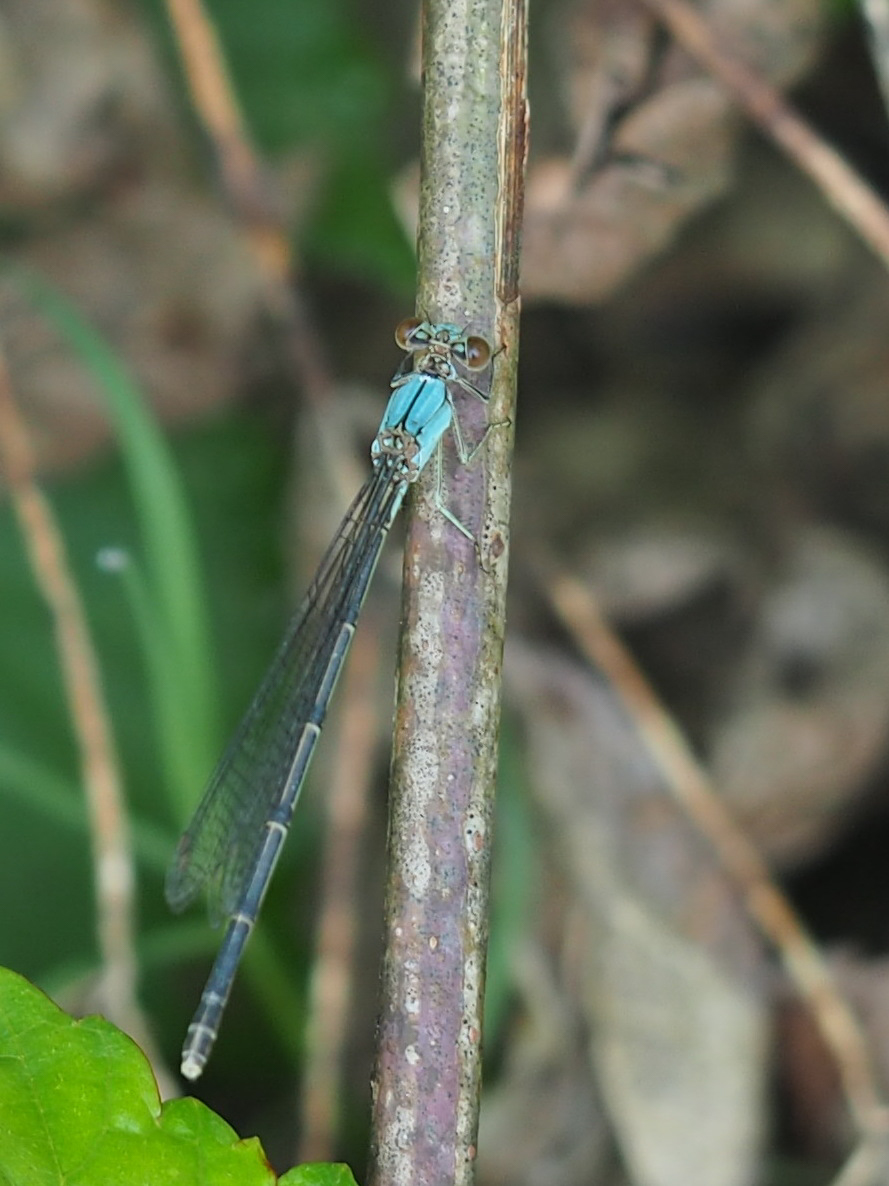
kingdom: Animalia
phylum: Arthropoda
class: Insecta
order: Odonata
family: Coenagrionidae
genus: Argia
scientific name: Argia apicalis
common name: Blue-fronted dancer
